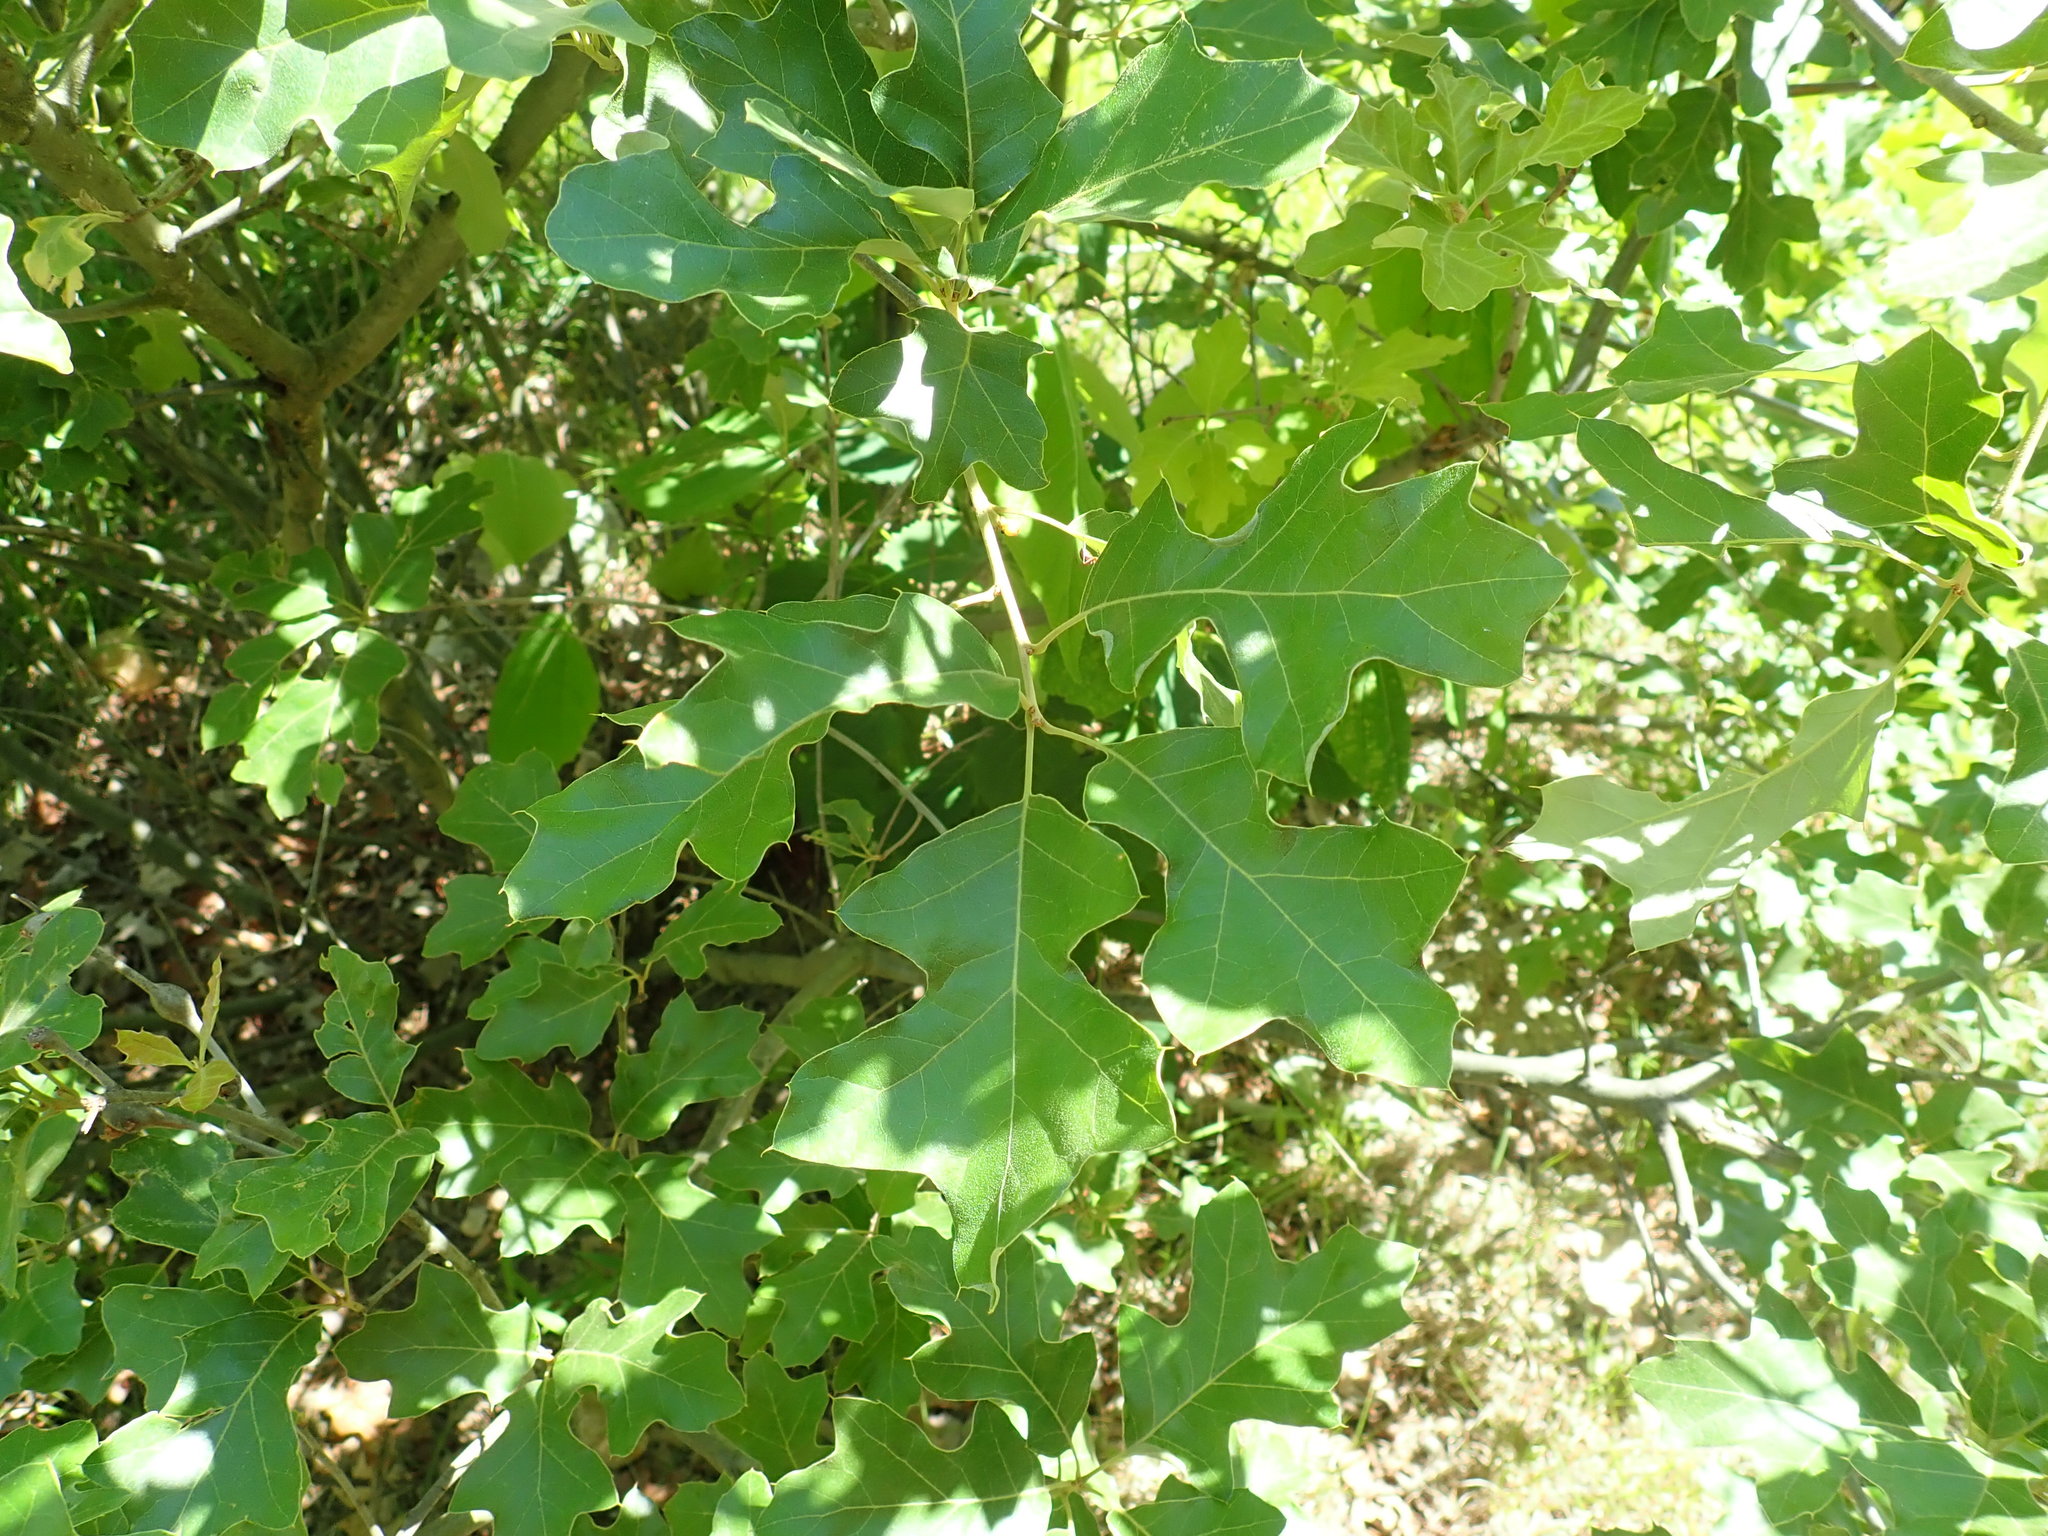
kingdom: Plantae
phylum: Tracheophyta
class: Magnoliopsida
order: Fagales
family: Fagaceae
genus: Quercus
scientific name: Quercus ilicifolia
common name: Bear oak
